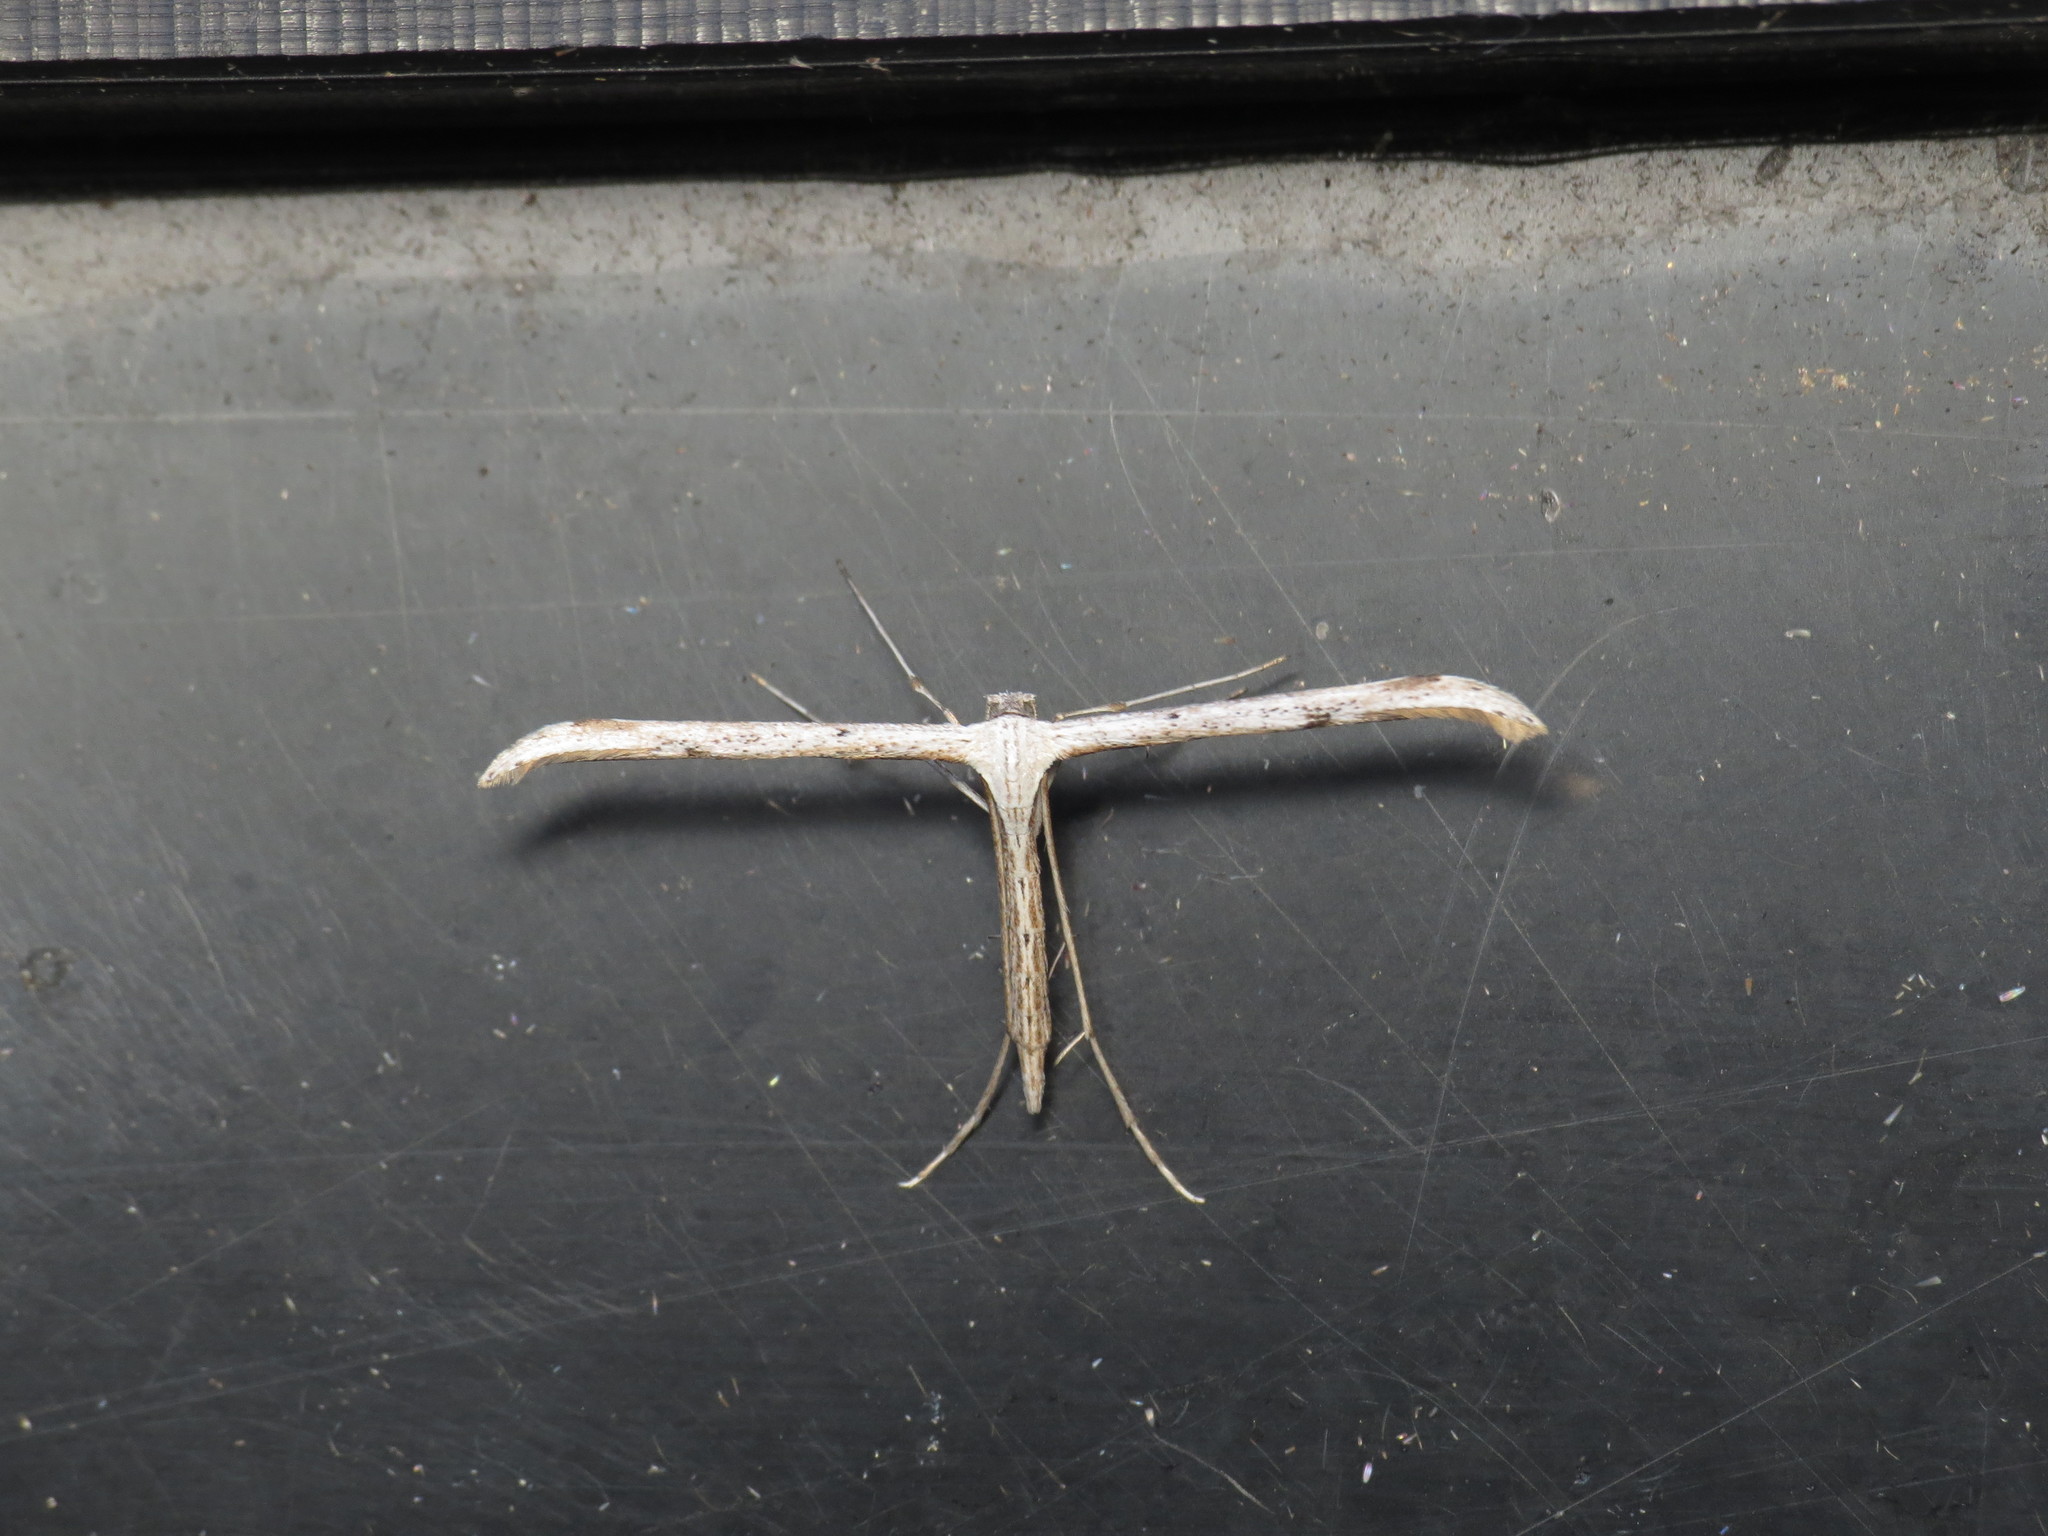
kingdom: Animalia
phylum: Arthropoda
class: Insecta
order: Lepidoptera
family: Pterophoridae
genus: Emmelina
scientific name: Emmelina monodactyla
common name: Common plume
